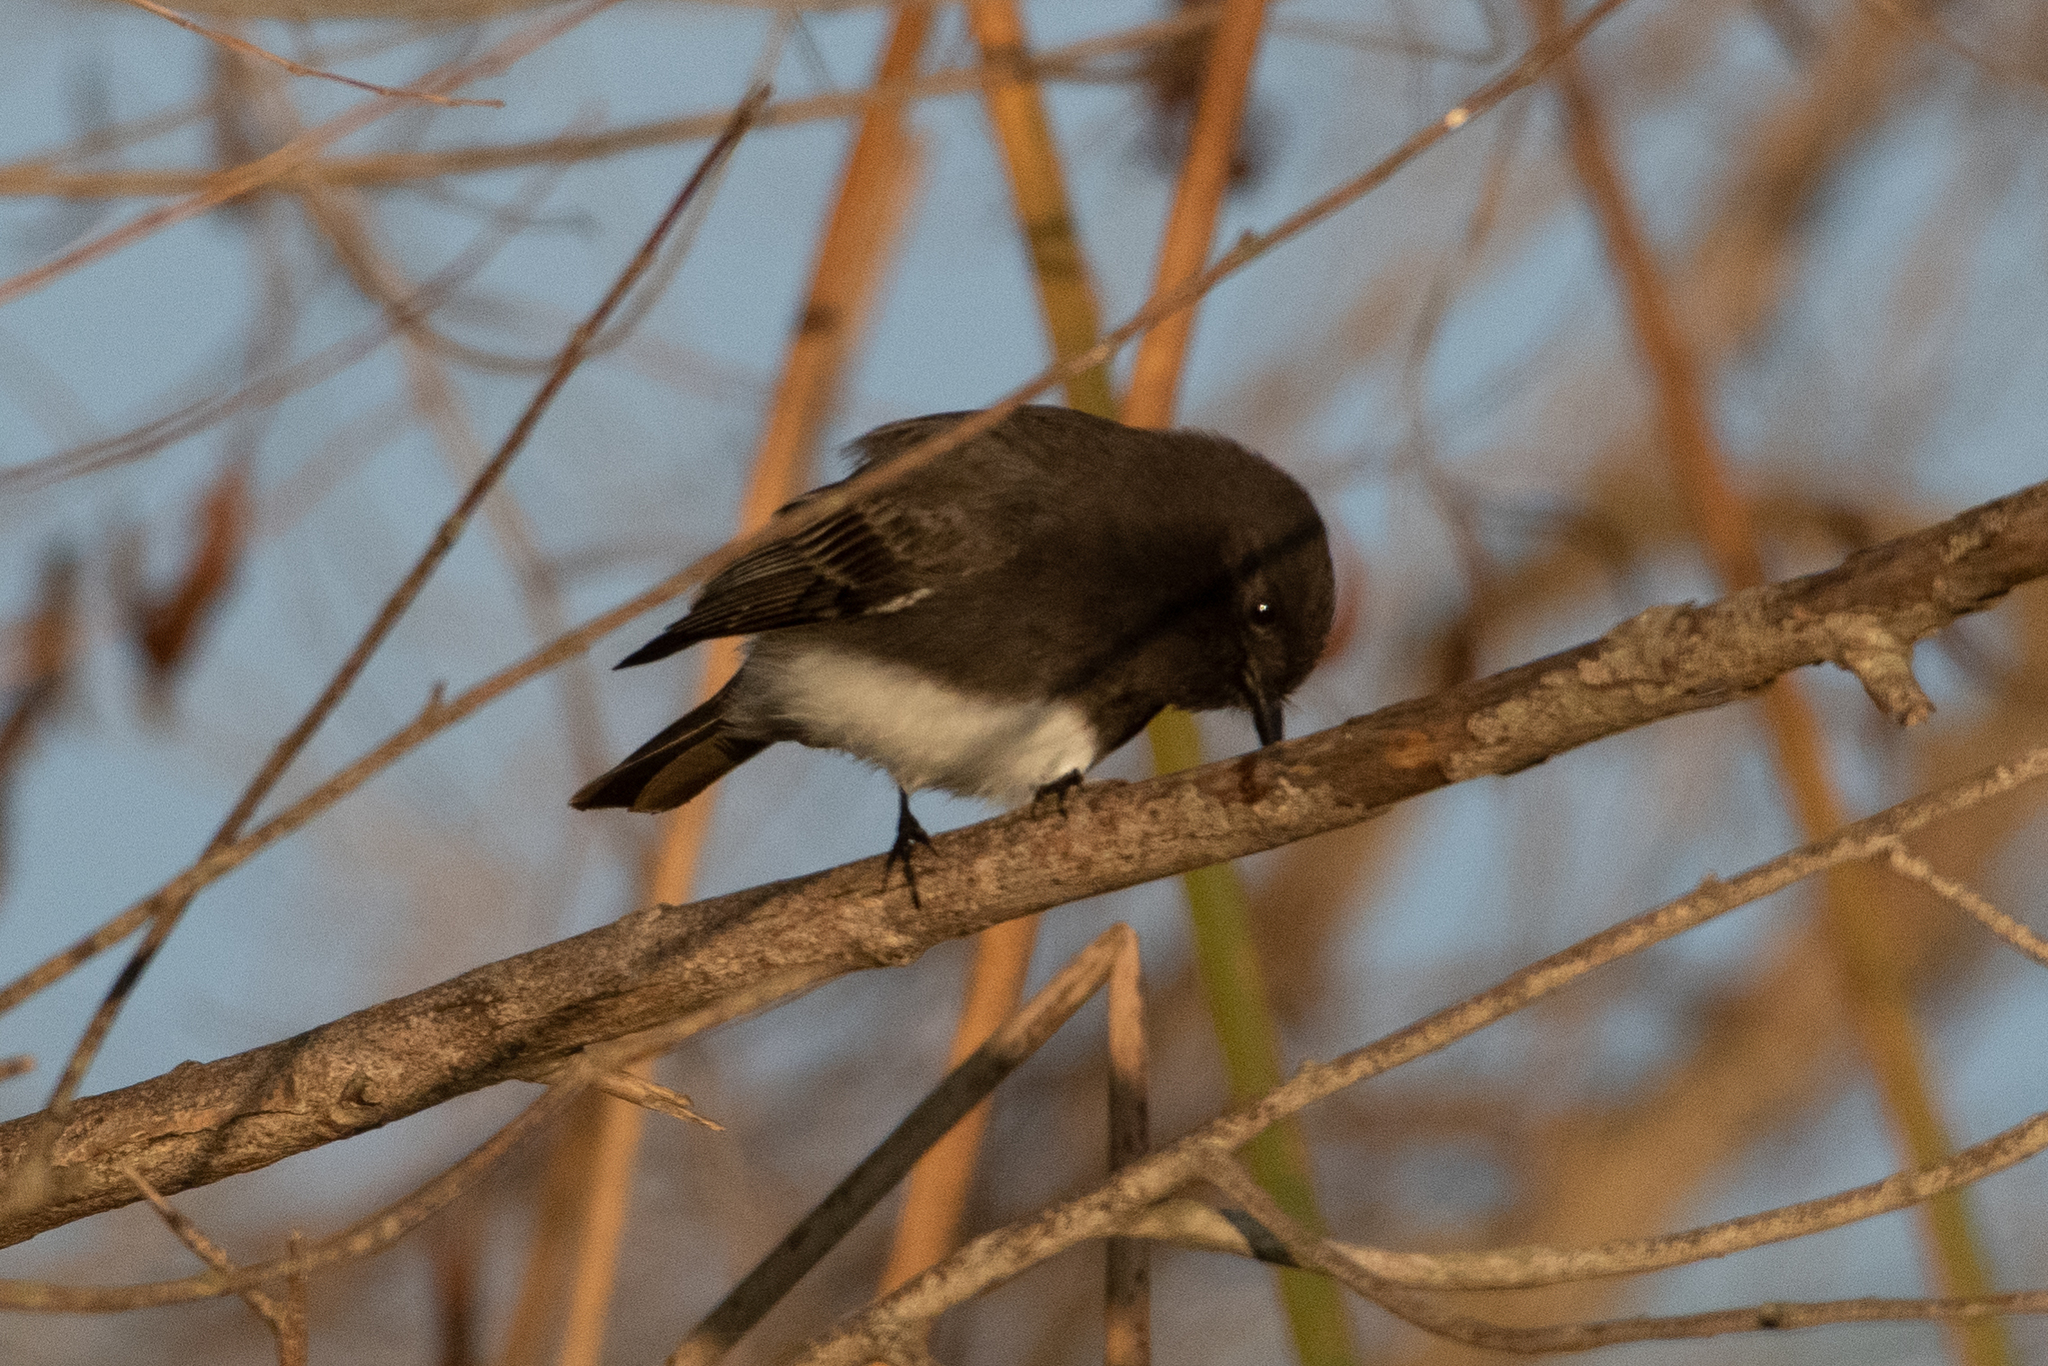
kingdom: Animalia
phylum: Chordata
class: Aves
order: Passeriformes
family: Tyrannidae
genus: Sayornis
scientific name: Sayornis nigricans
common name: Black phoebe
